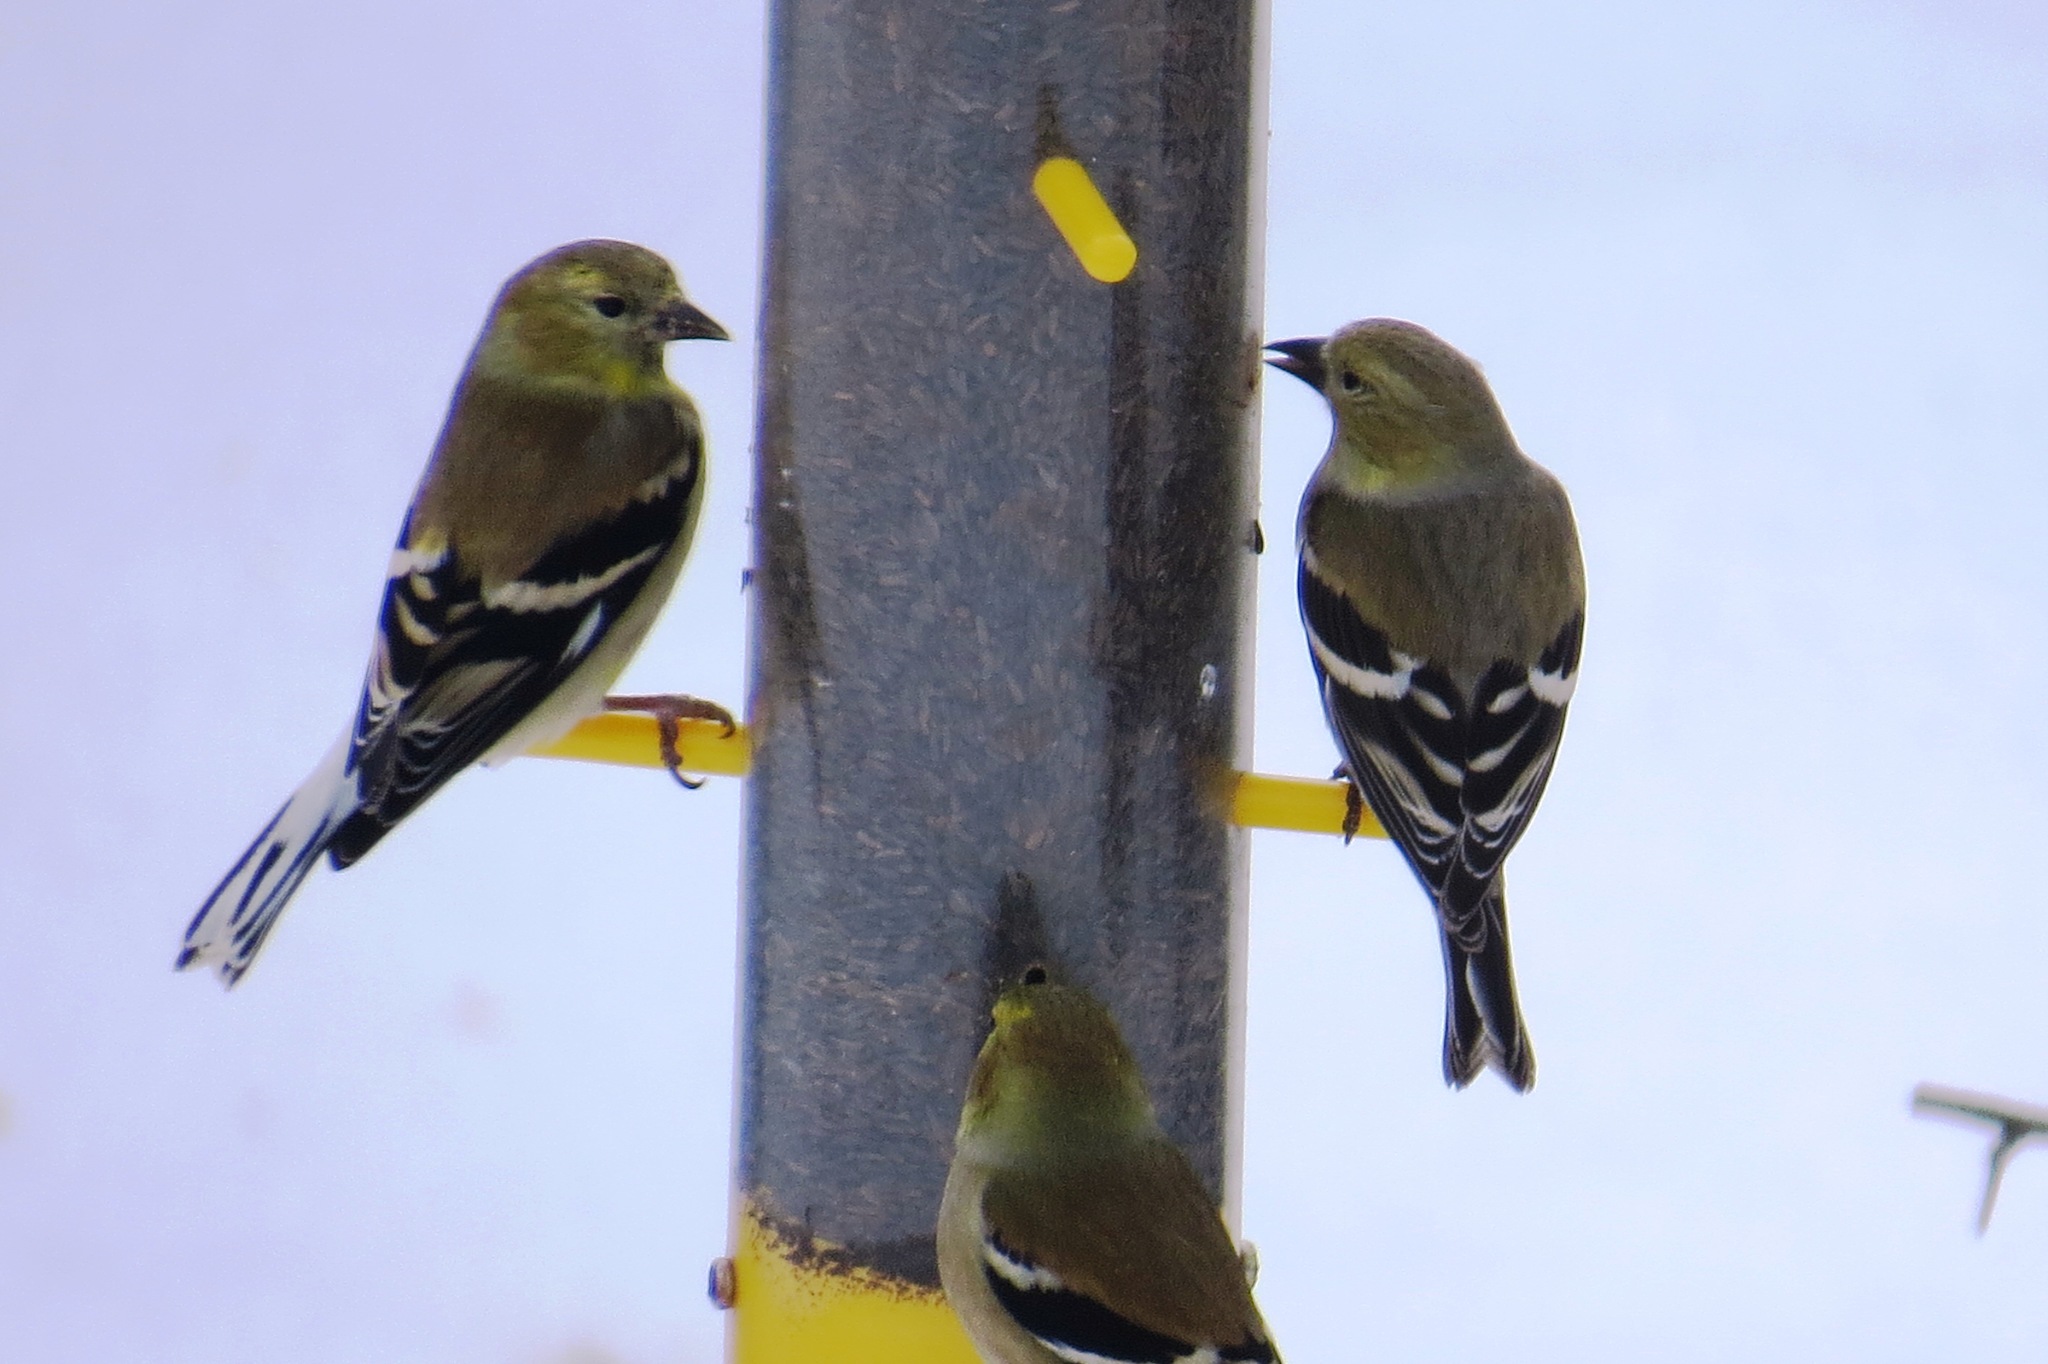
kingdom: Animalia
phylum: Chordata
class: Aves
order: Passeriformes
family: Fringillidae
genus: Spinus
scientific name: Spinus tristis
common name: American goldfinch
